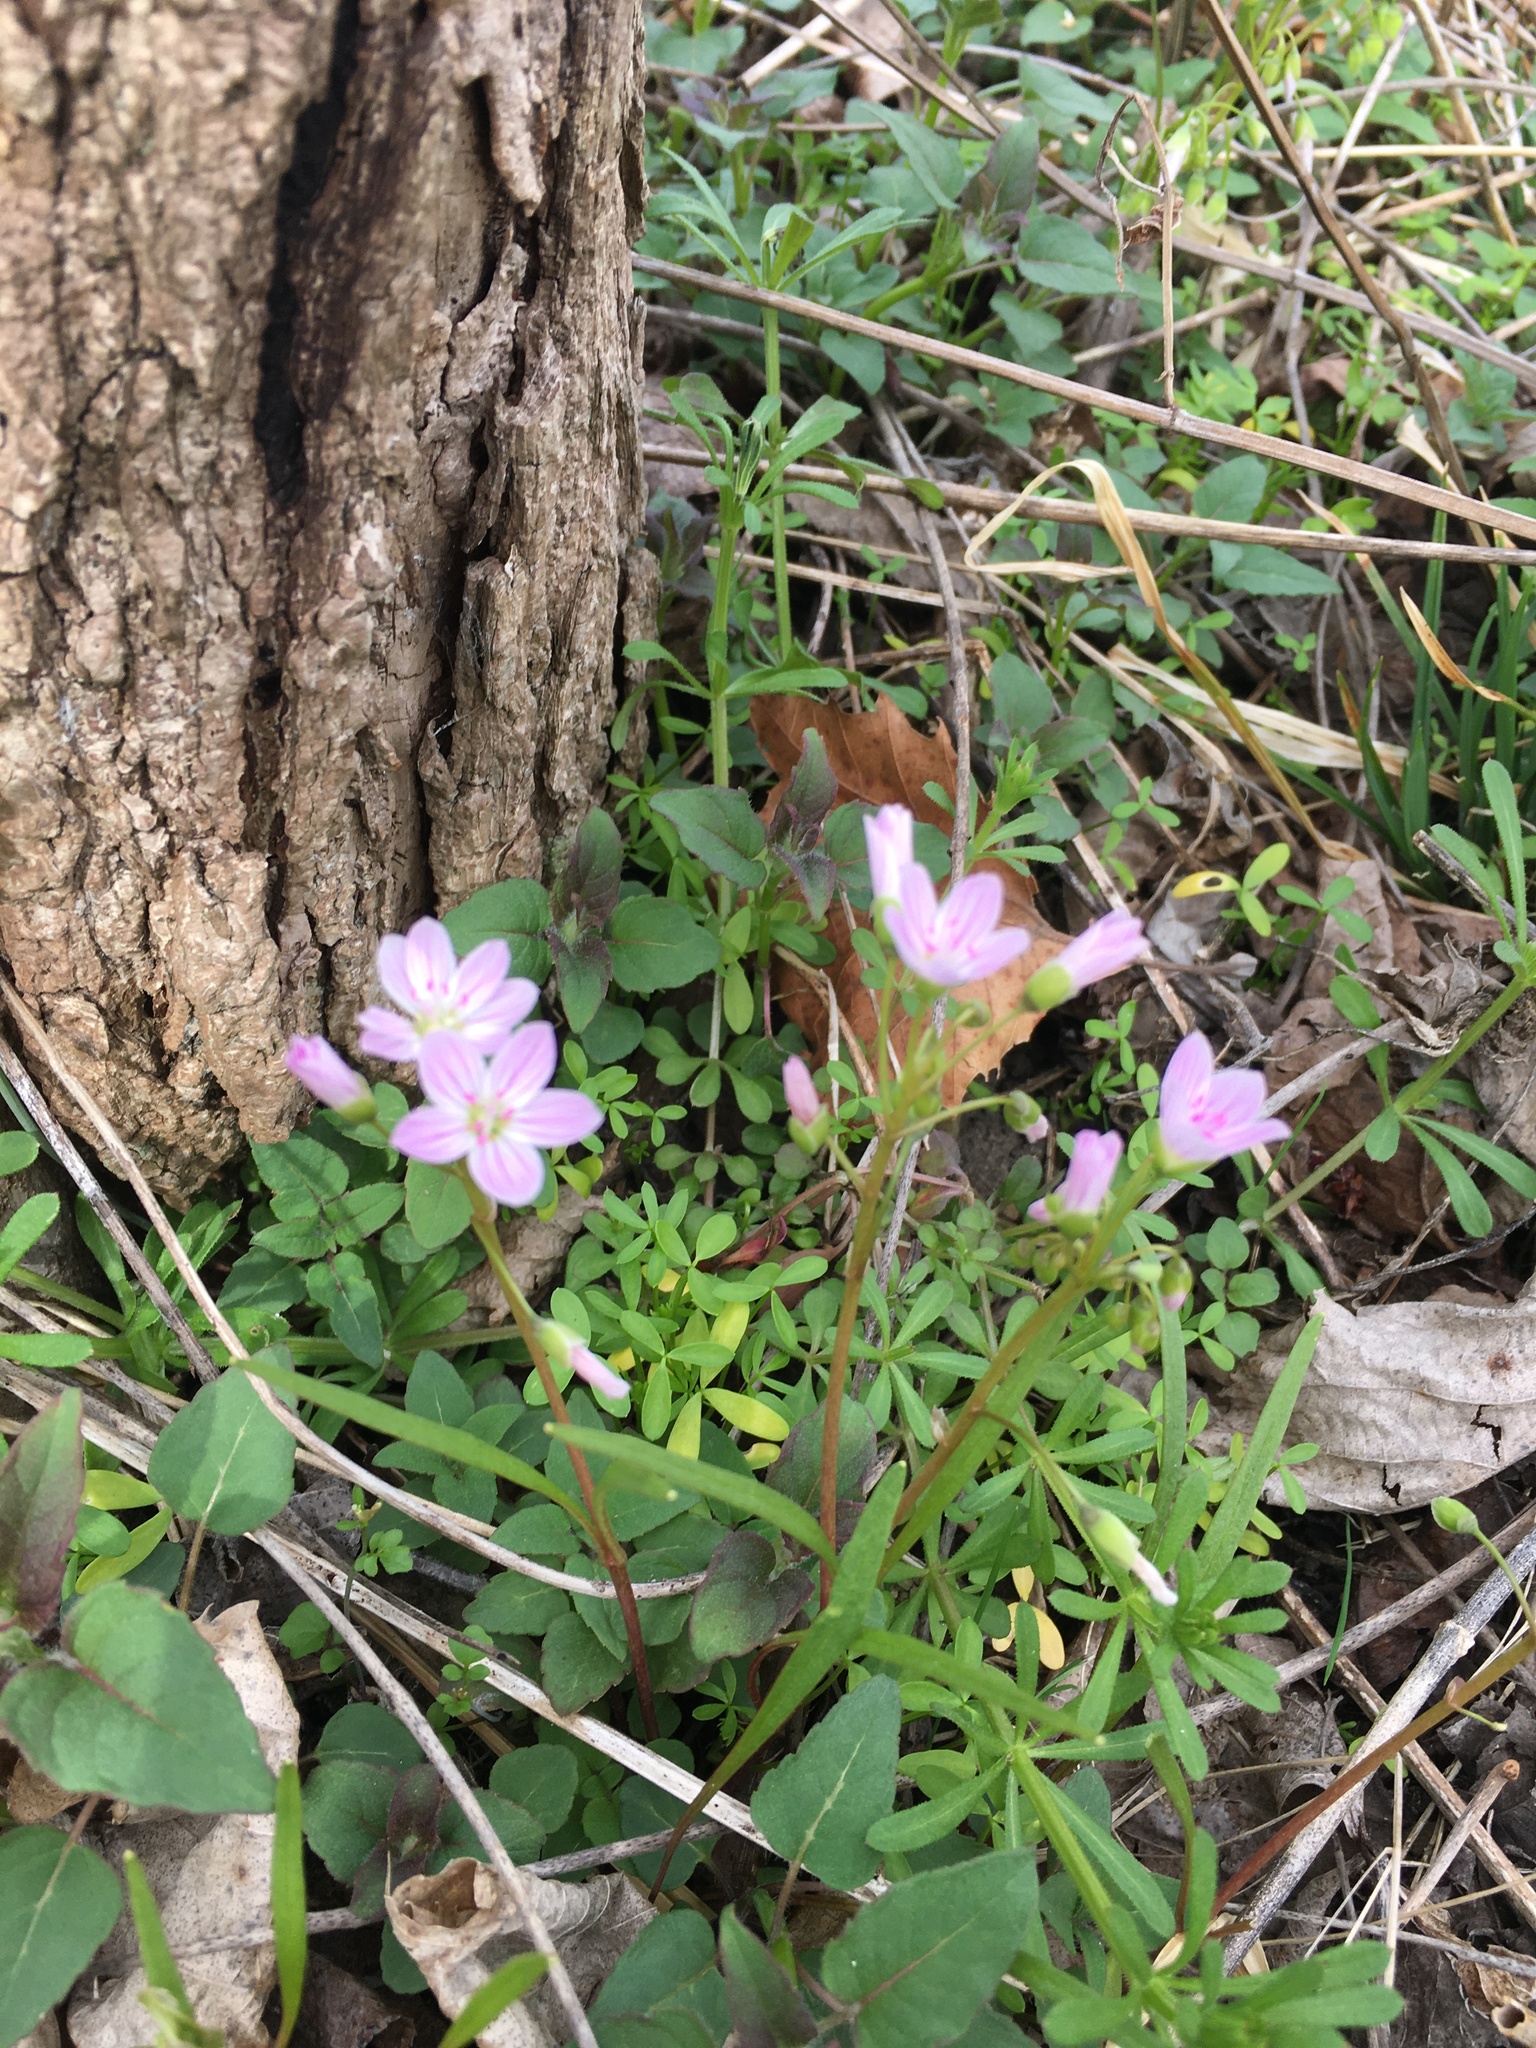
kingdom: Plantae
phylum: Tracheophyta
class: Magnoliopsida
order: Caryophyllales
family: Montiaceae
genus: Claytonia
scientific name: Claytonia virginica
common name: Virginia springbeauty
